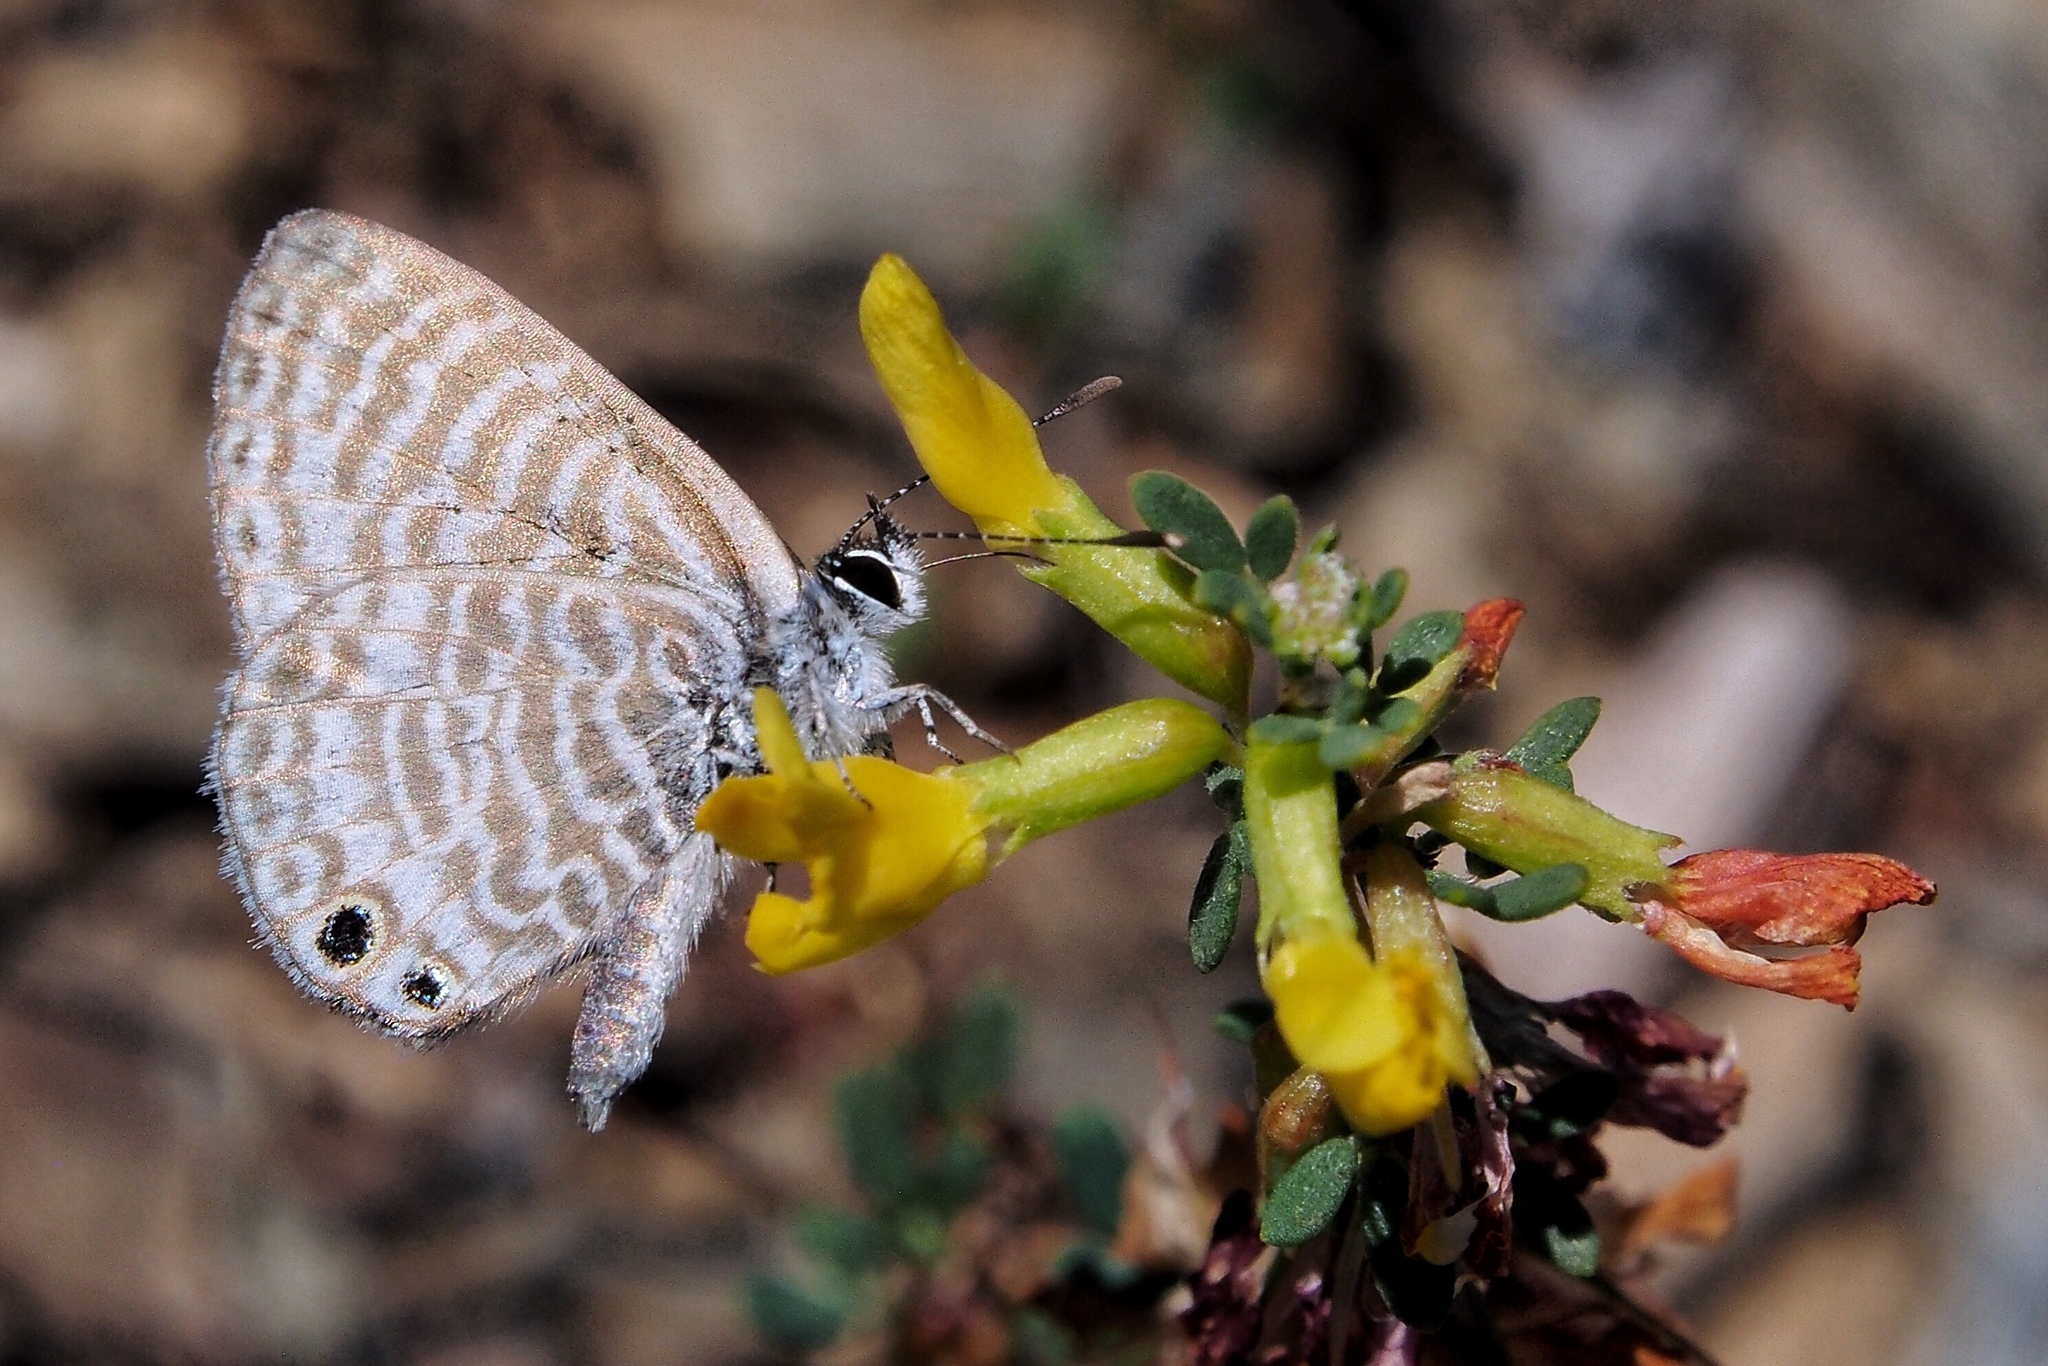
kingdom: Animalia
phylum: Arthropoda
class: Insecta
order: Lepidoptera
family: Lycaenidae
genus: Leptotes
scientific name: Leptotes marina
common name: Marine blue
